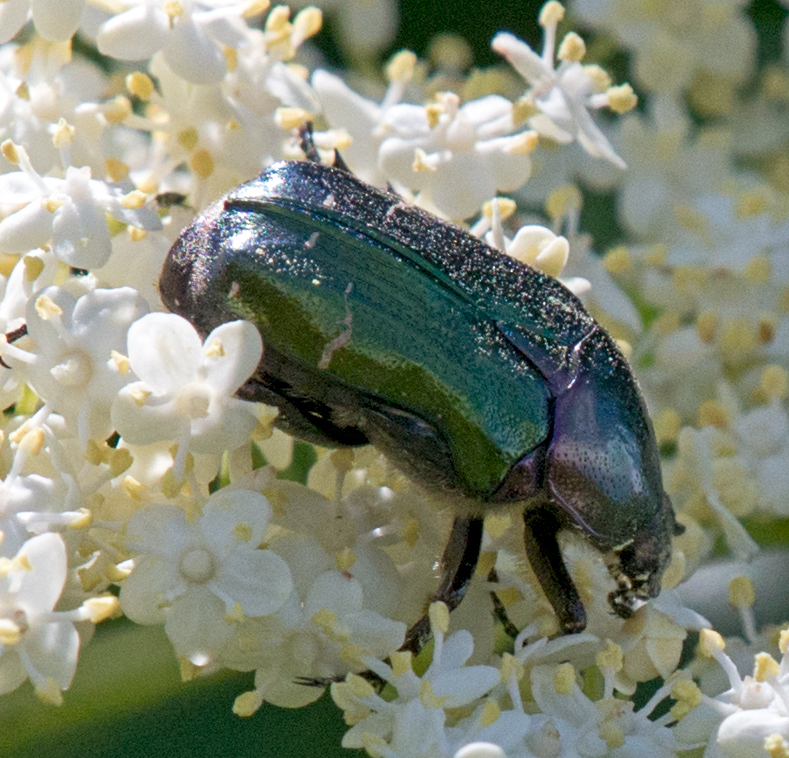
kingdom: Animalia
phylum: Arthropoda
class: Insecta
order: Coleoptera
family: Scarabaeidae
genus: Cetonia
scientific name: Cetonia aurata
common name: Rose chafer
